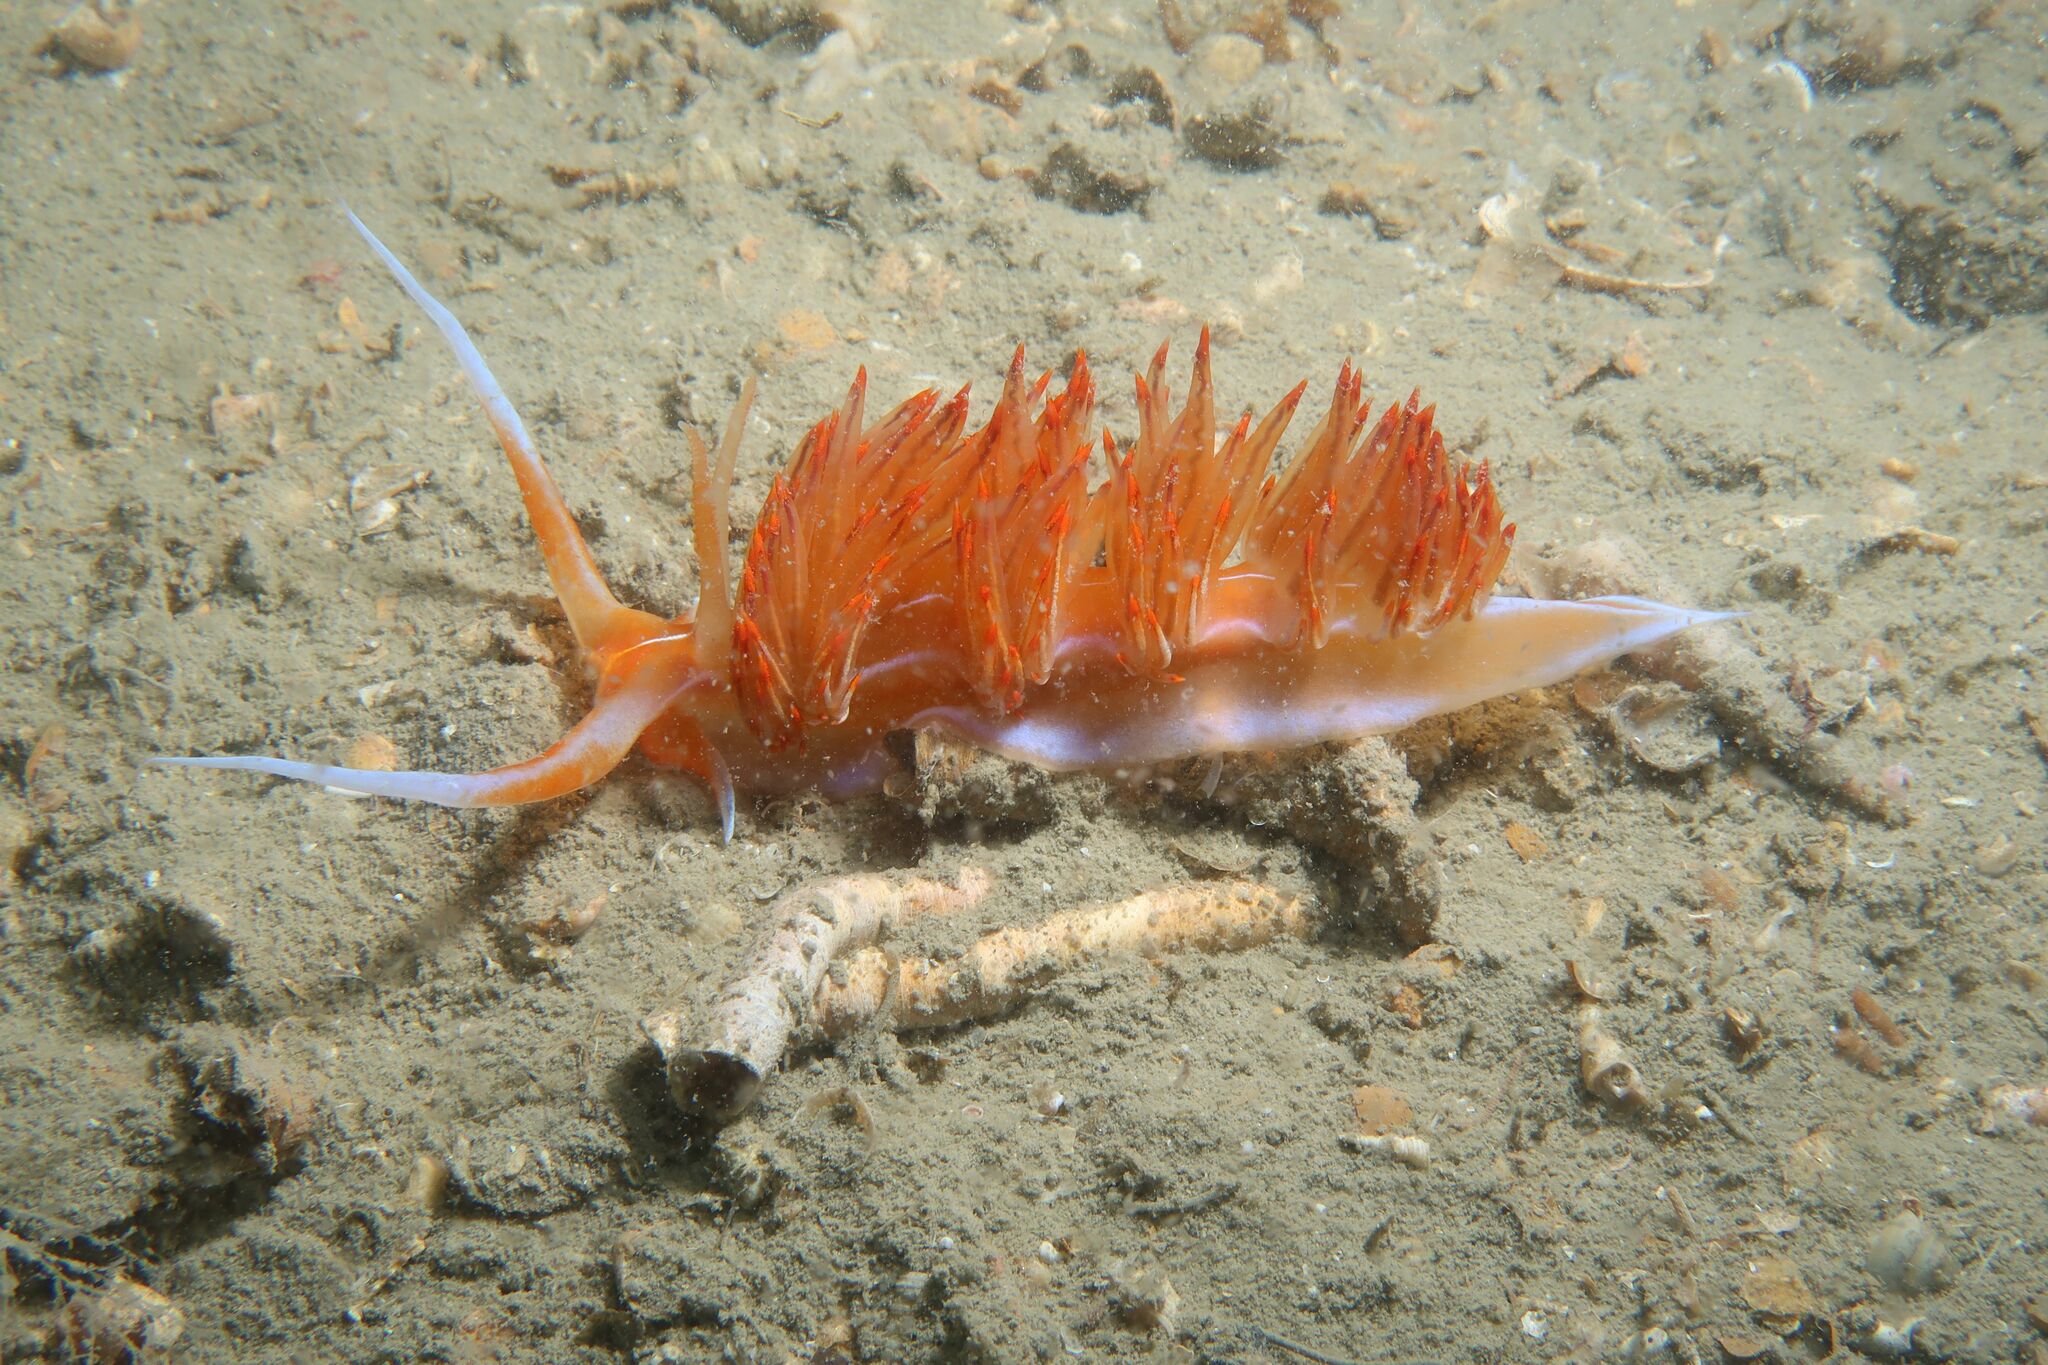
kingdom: Animalia
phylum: Mollusca
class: Gastropoda
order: Nudibranchia
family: Myrrhinidae
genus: Nemesignis
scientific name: Nemesignis banyulensis
